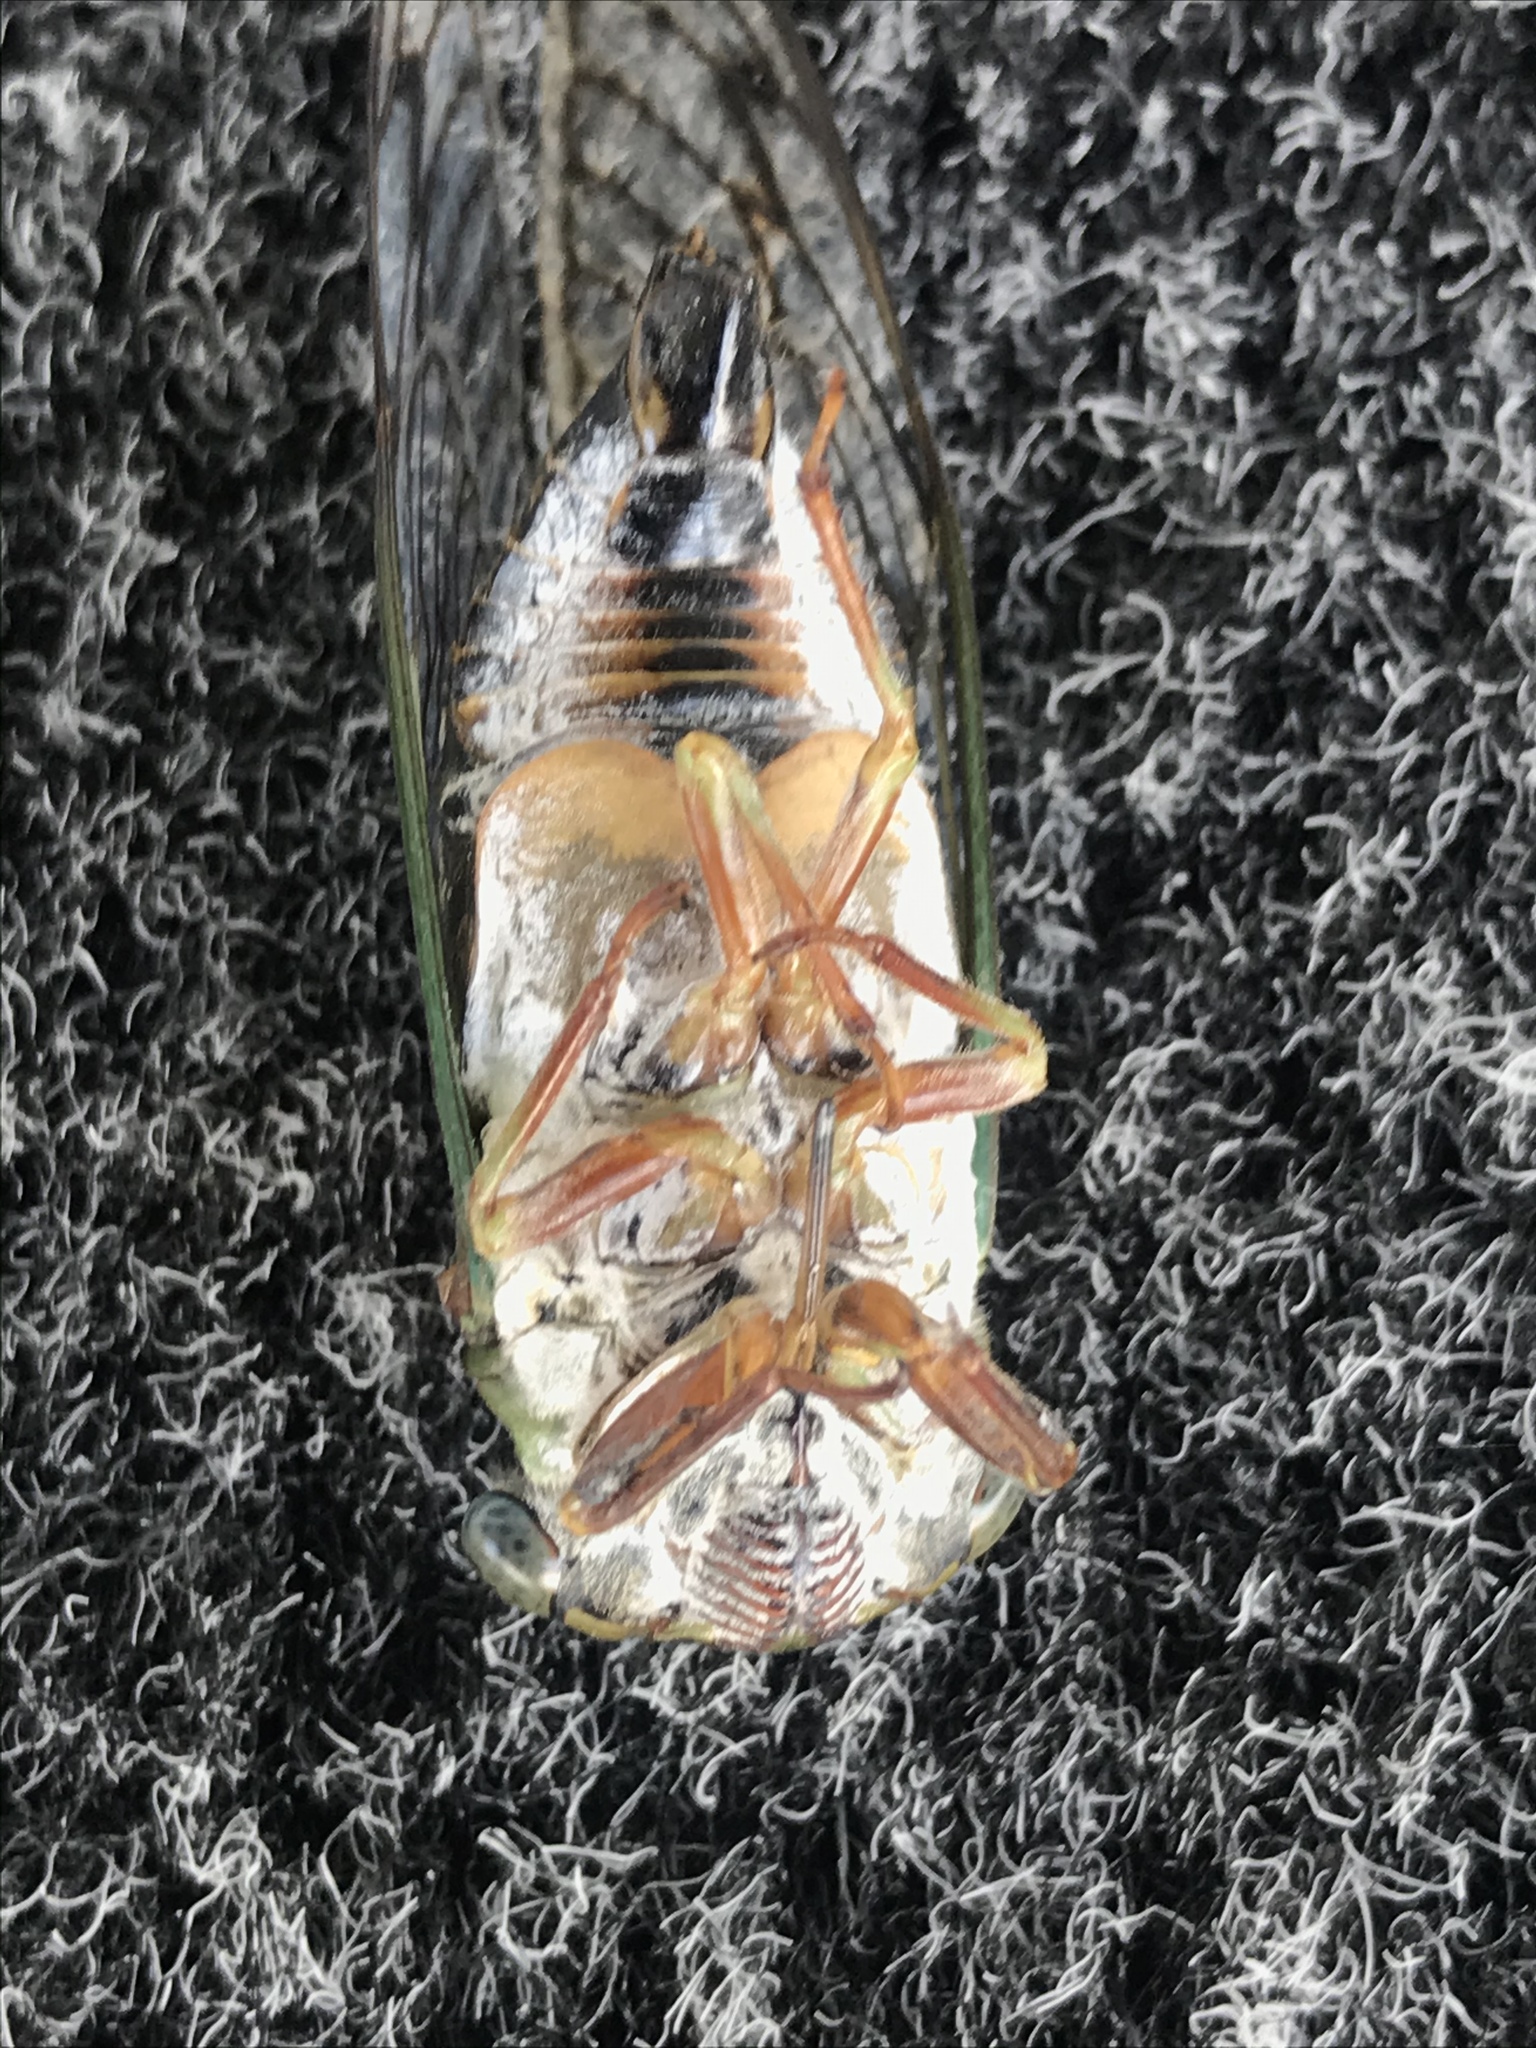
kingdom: Animalia
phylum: Arthropoda
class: Insecta
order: Hemiptera
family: Cicadidae
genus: Neotibicen
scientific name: Neotibicen davisi
